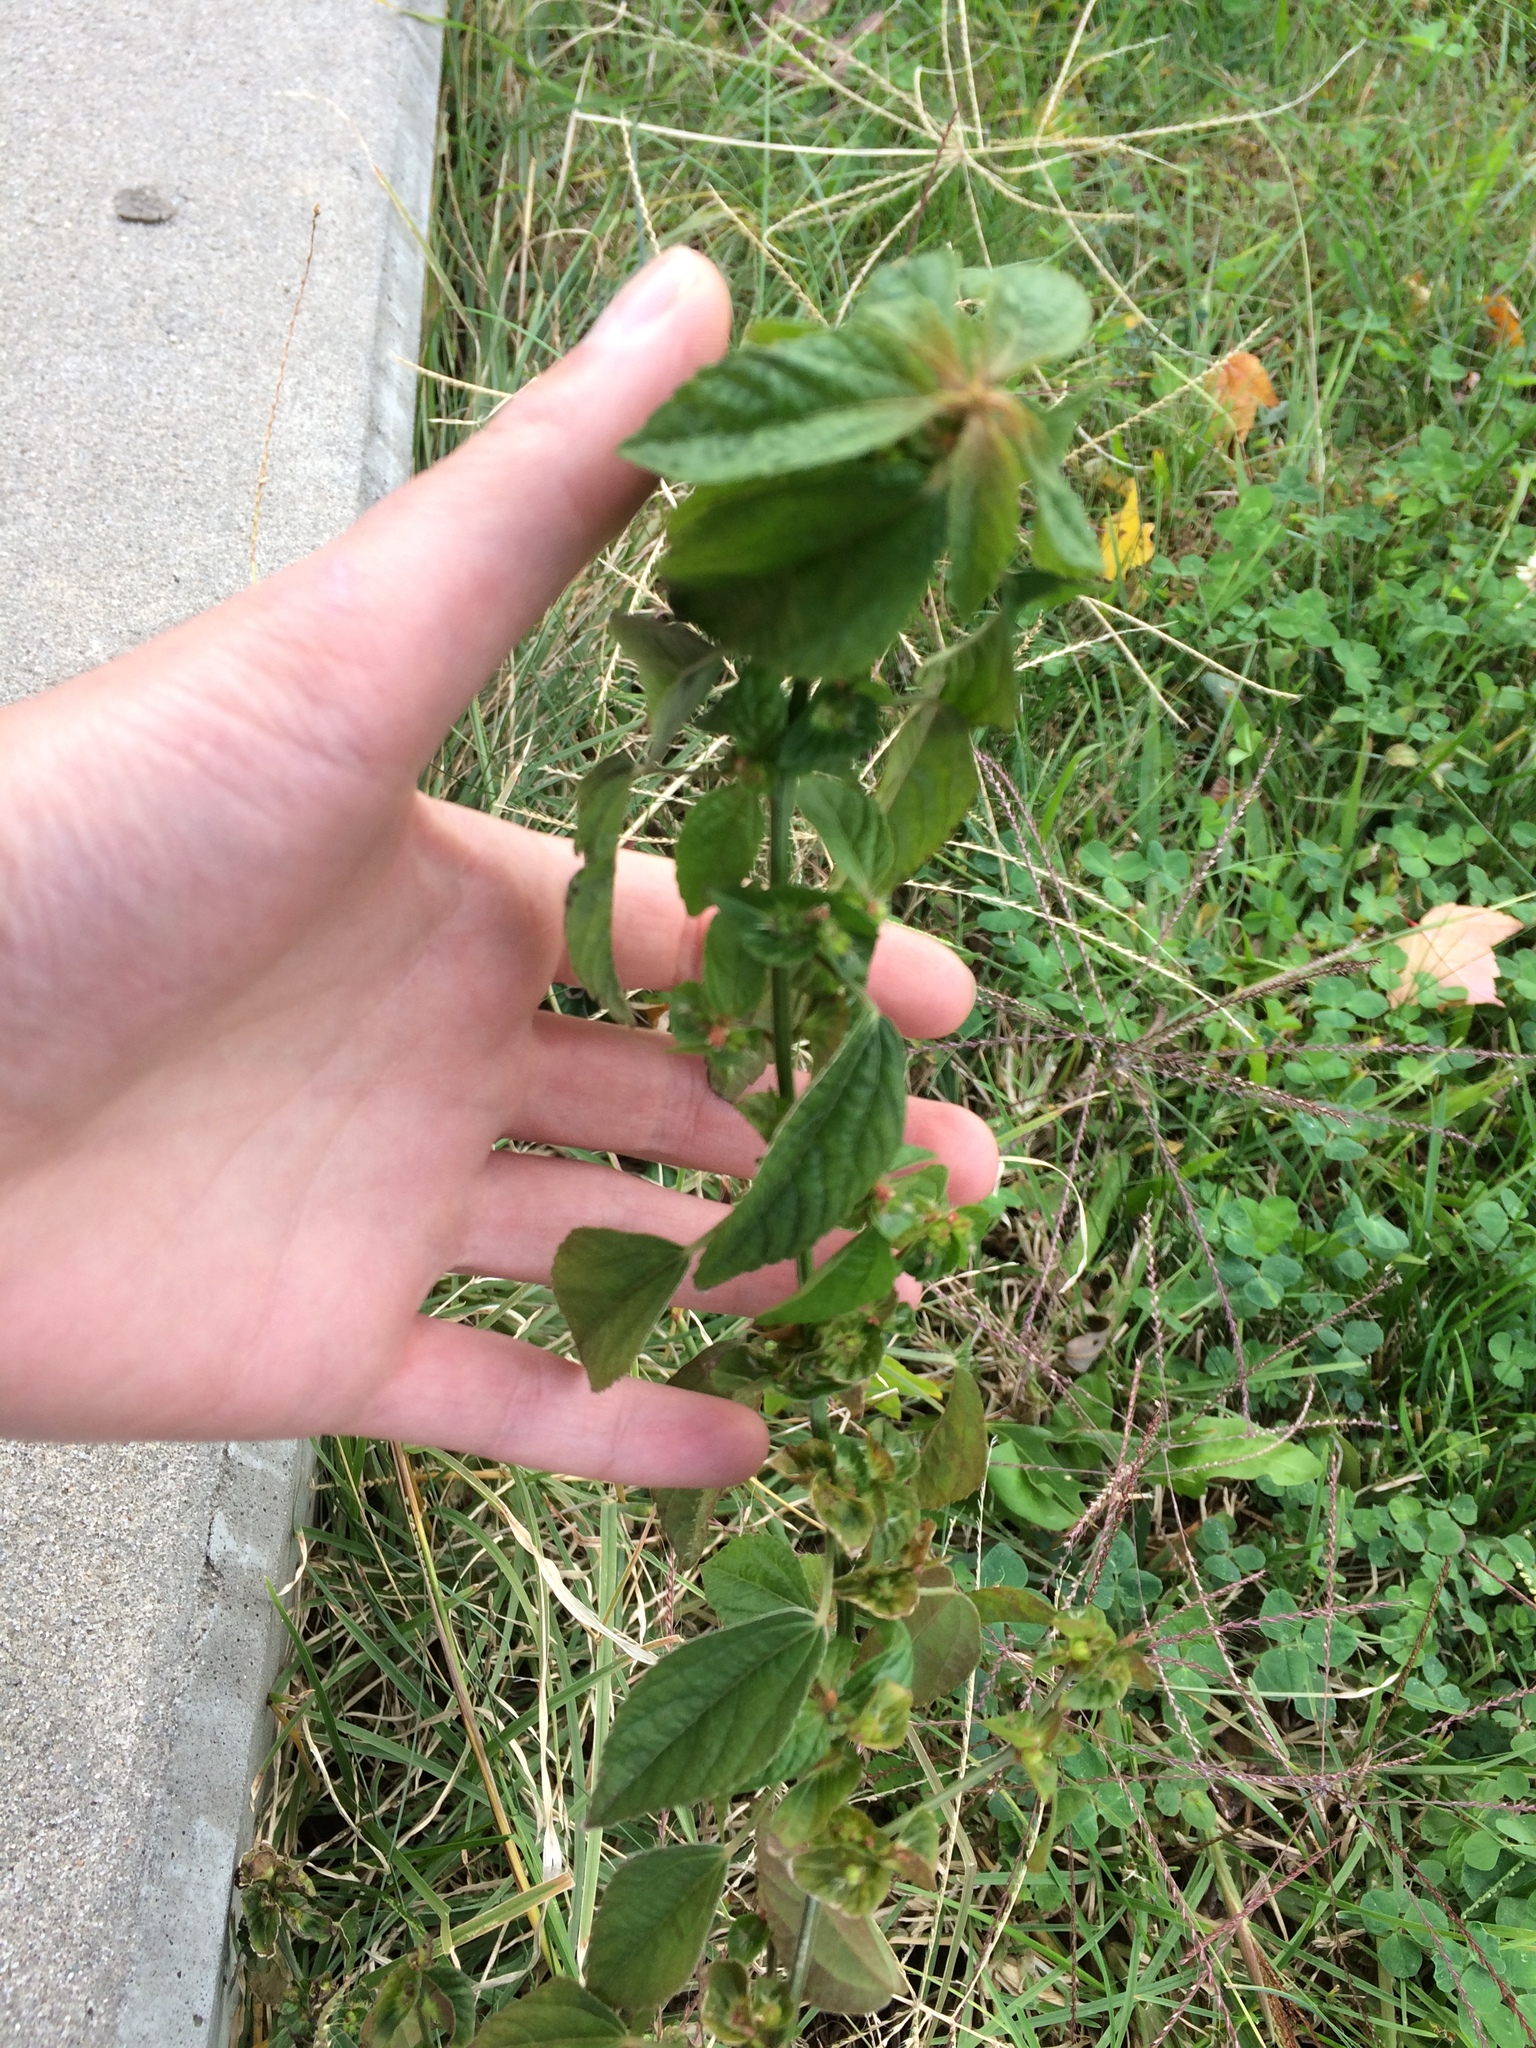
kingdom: Plantae
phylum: Tracheophyta
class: Magnoliopsida
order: Malpighiales
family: Euphorbiaceae
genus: Acalypha
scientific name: Acalypha australis
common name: Asian copperleaf
